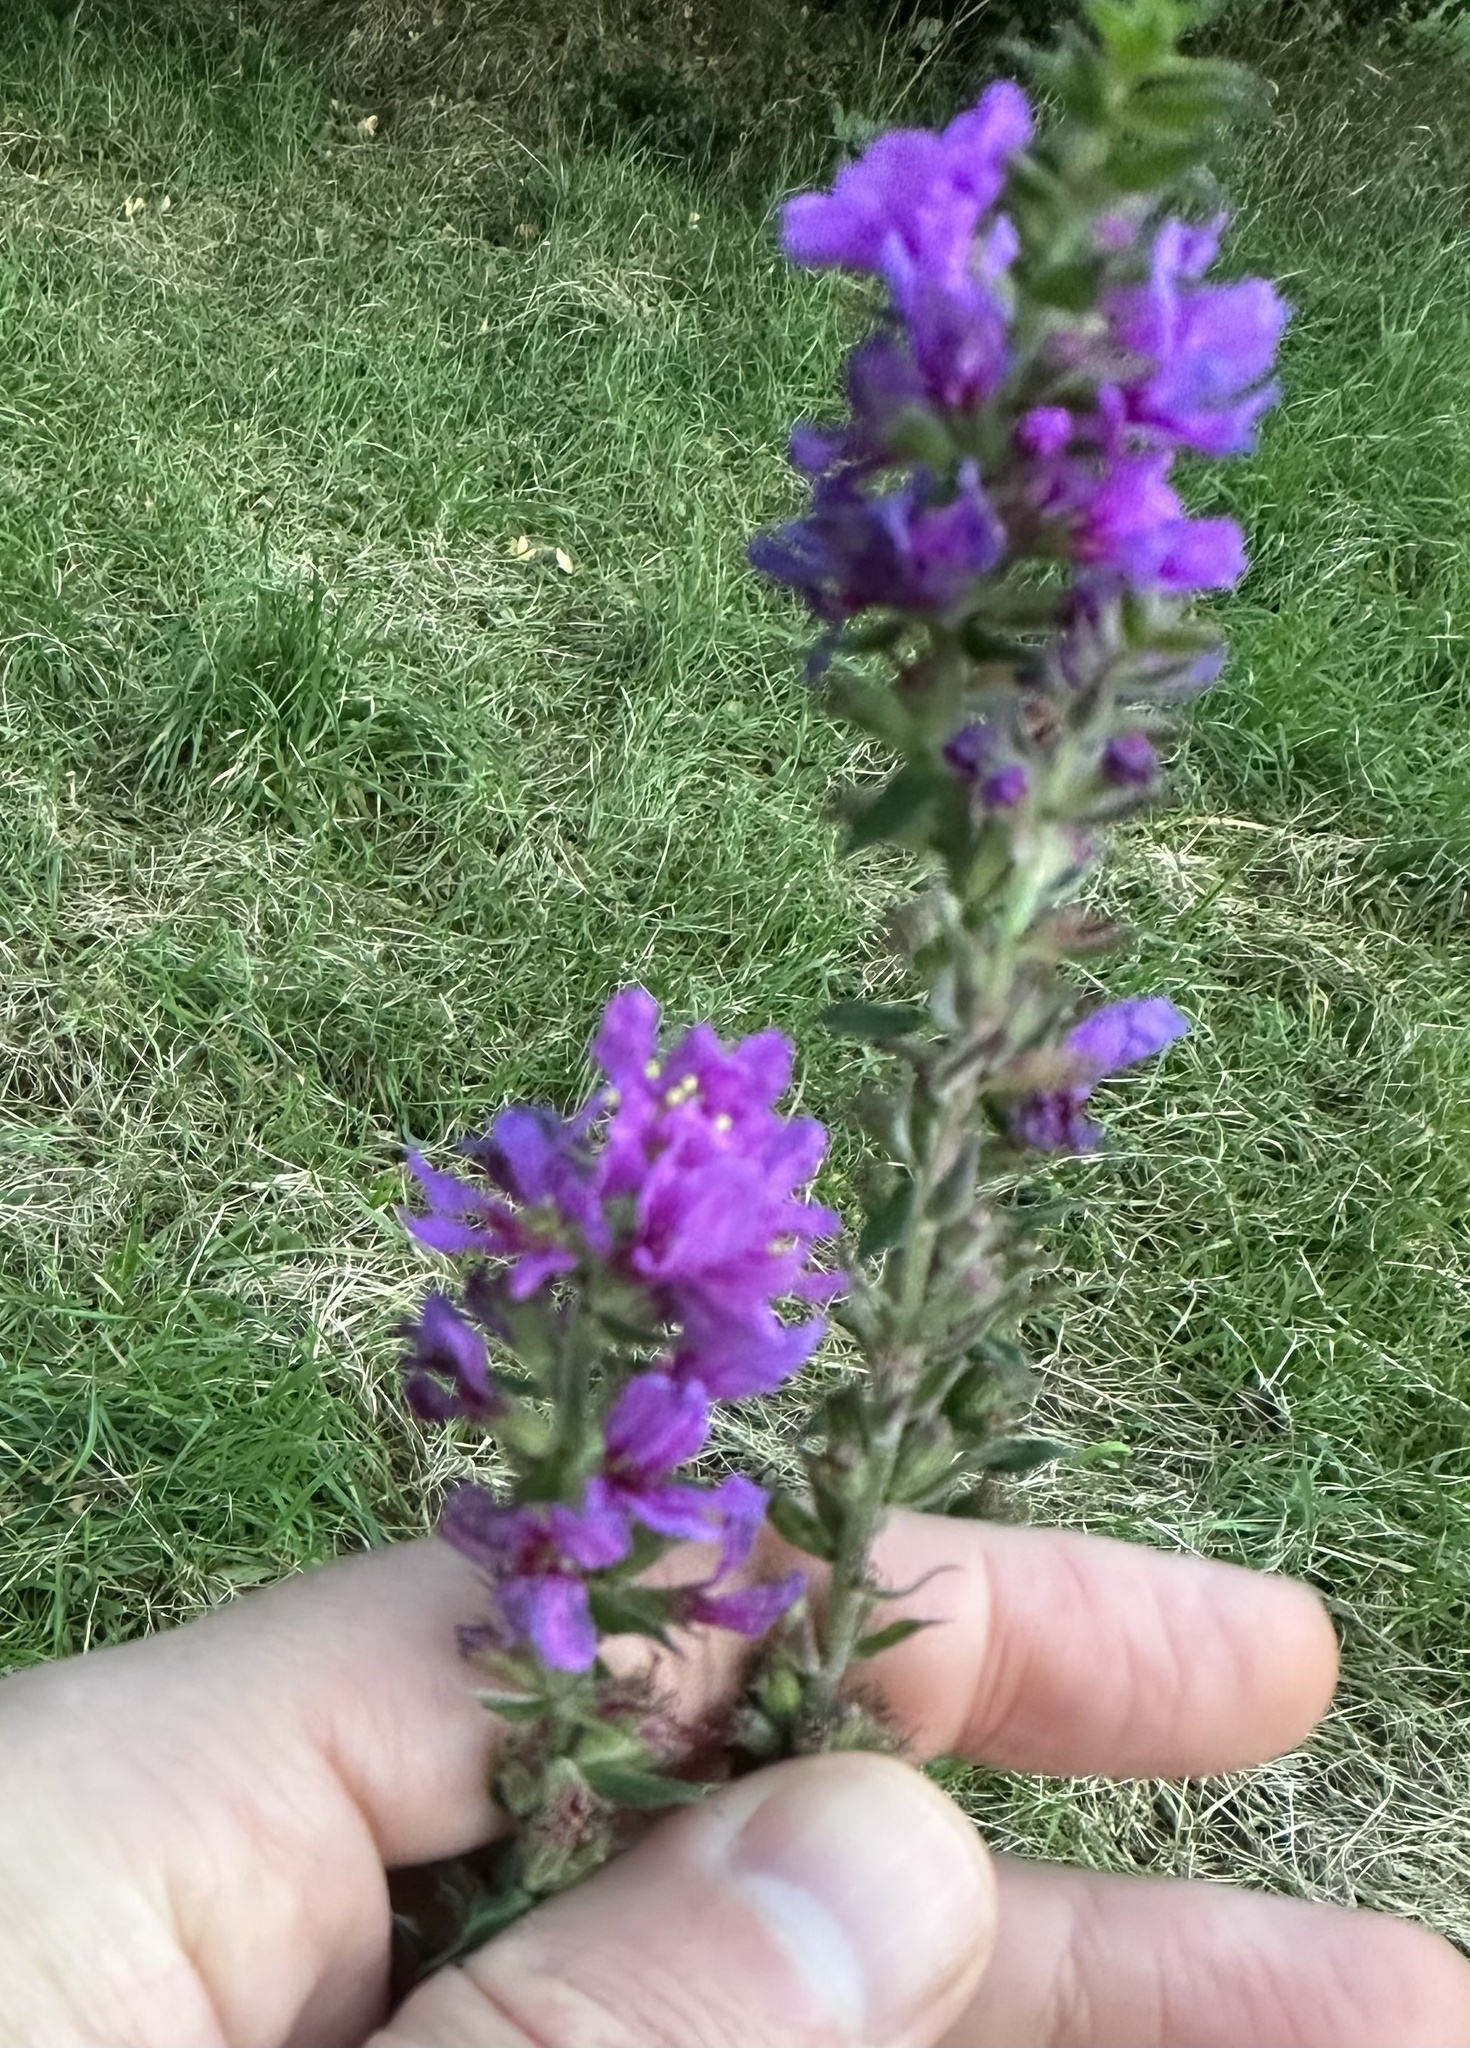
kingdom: Plantae
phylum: Tracheophyta
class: Magnoliopsida
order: Myrtales
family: Lythraceae
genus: Lythrum
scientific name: Lythrum salicaria
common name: Purple loosestrife
